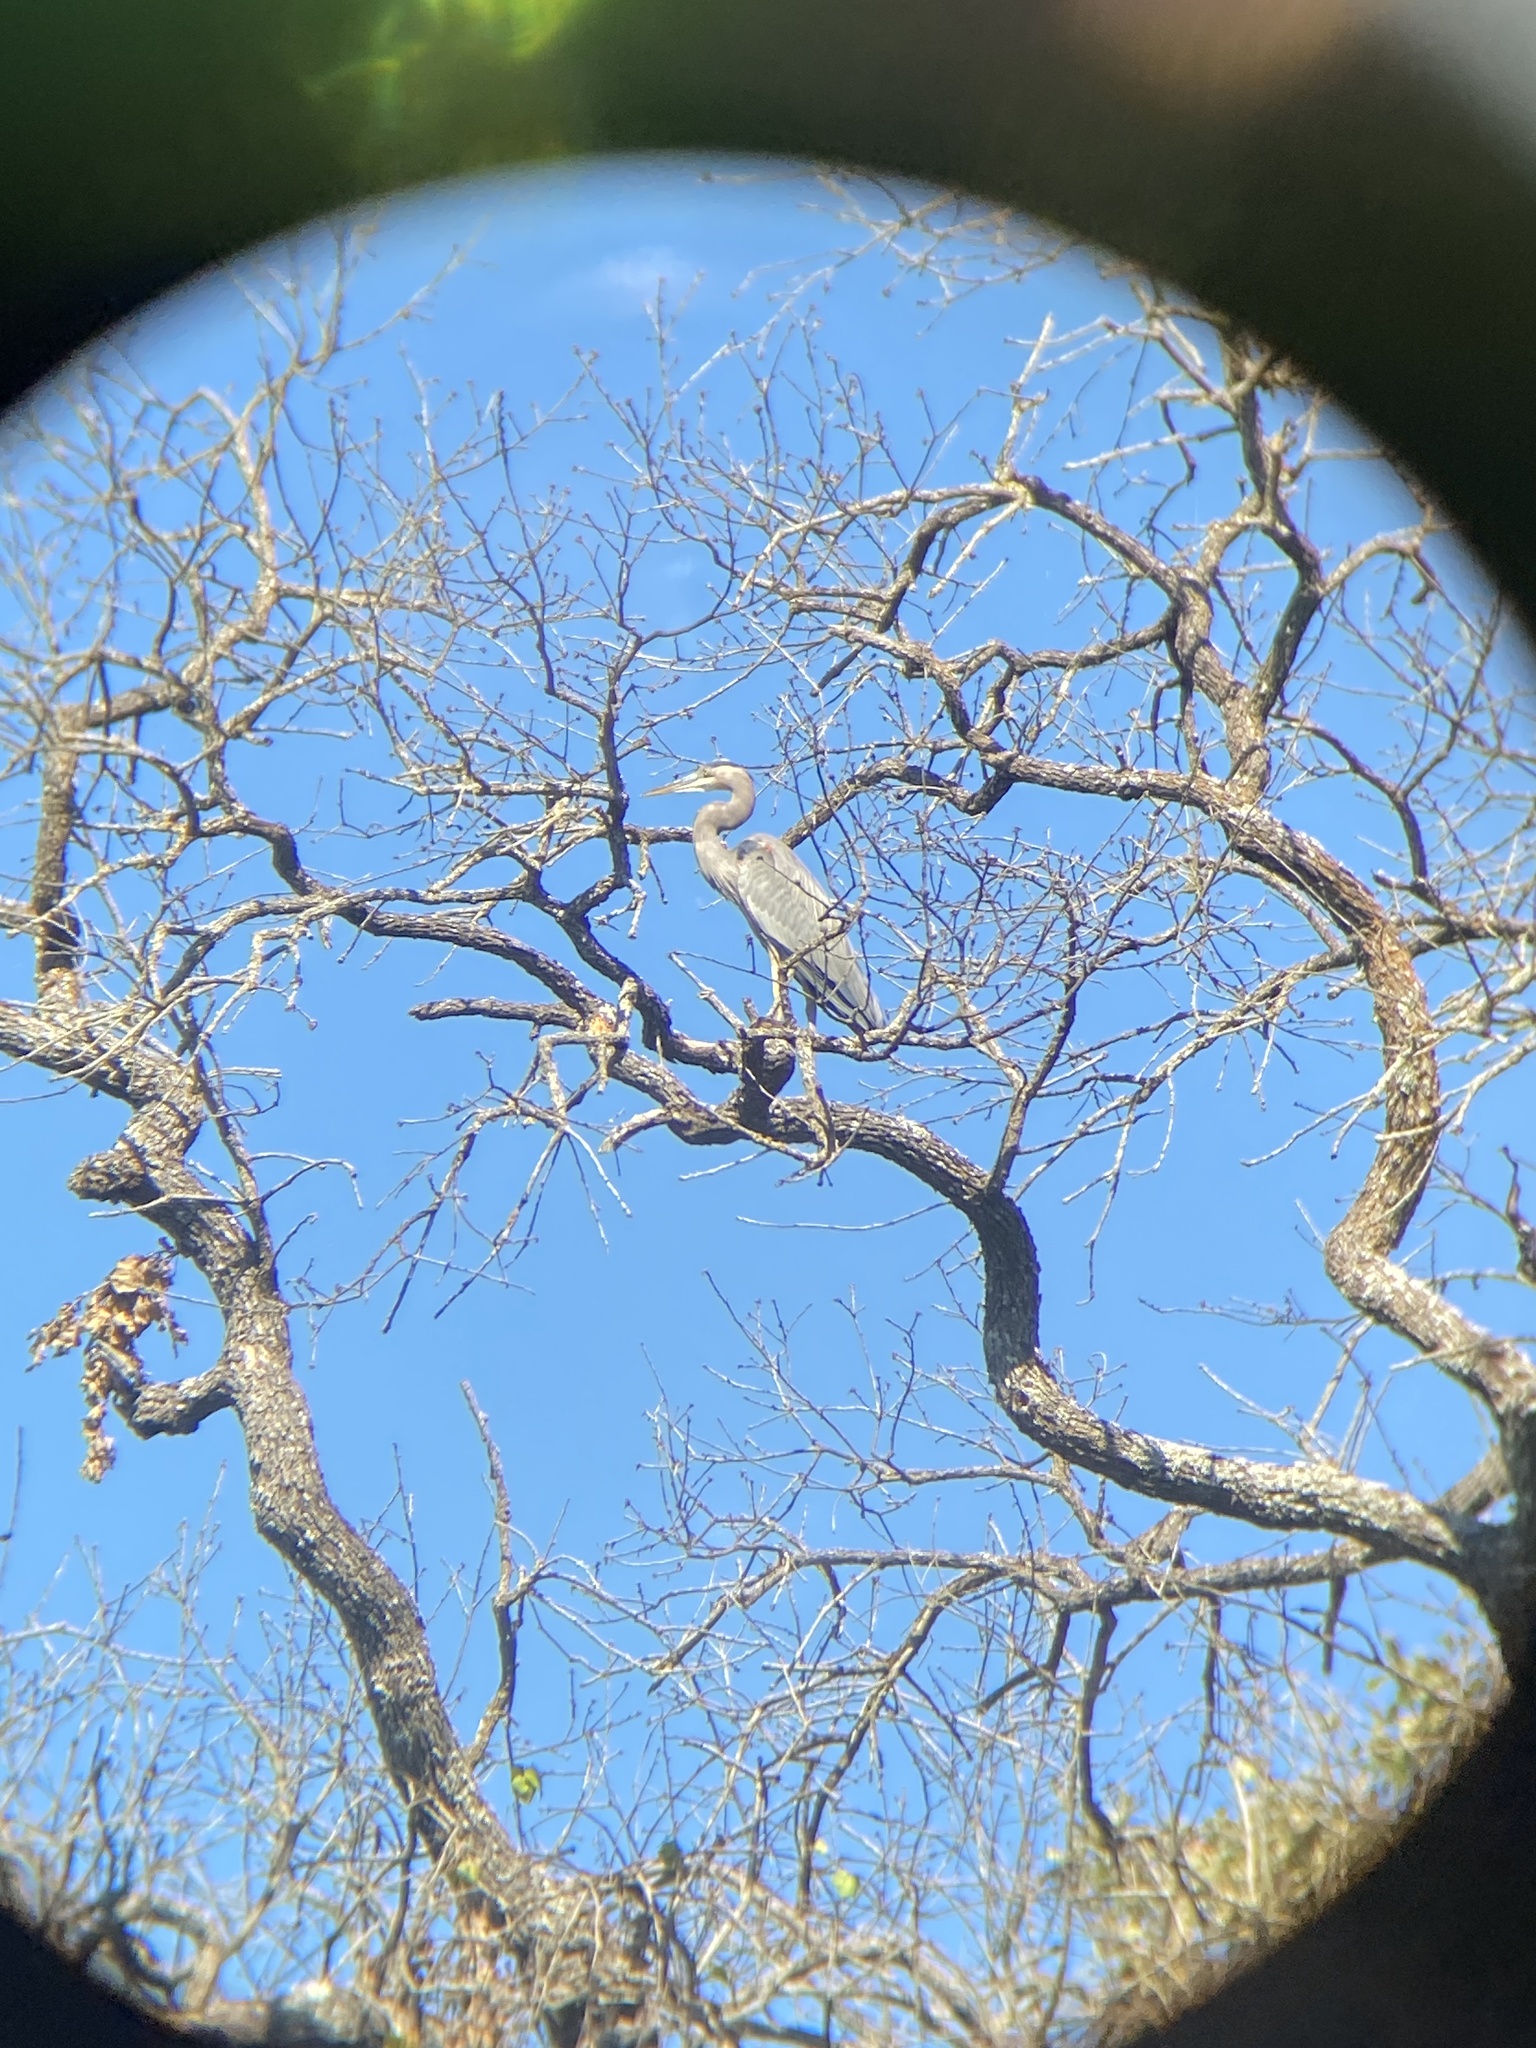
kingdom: Animalia
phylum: Chordata
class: Aves
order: Pelecaniformes
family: Ardeidae
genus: Ardea
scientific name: Ardea herodias
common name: Great blue heron
